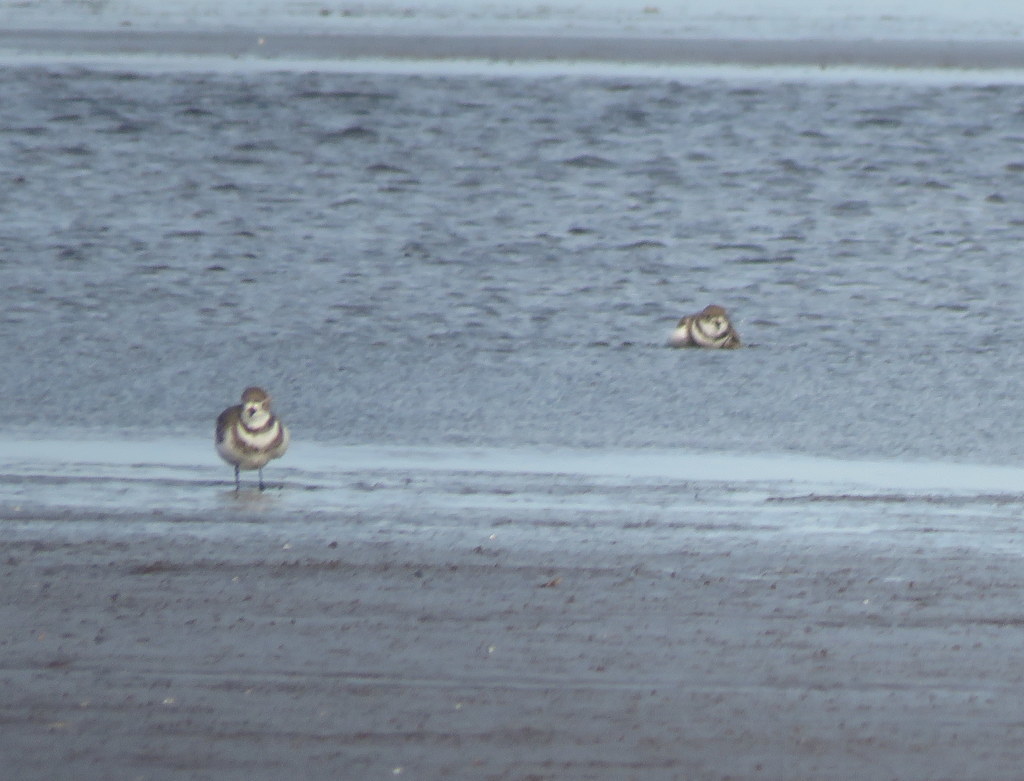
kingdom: Animalia
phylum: Chordata
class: Aves
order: Charadriiformes
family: Charadriidae
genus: Anarhynchus
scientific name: Anarhynchus
